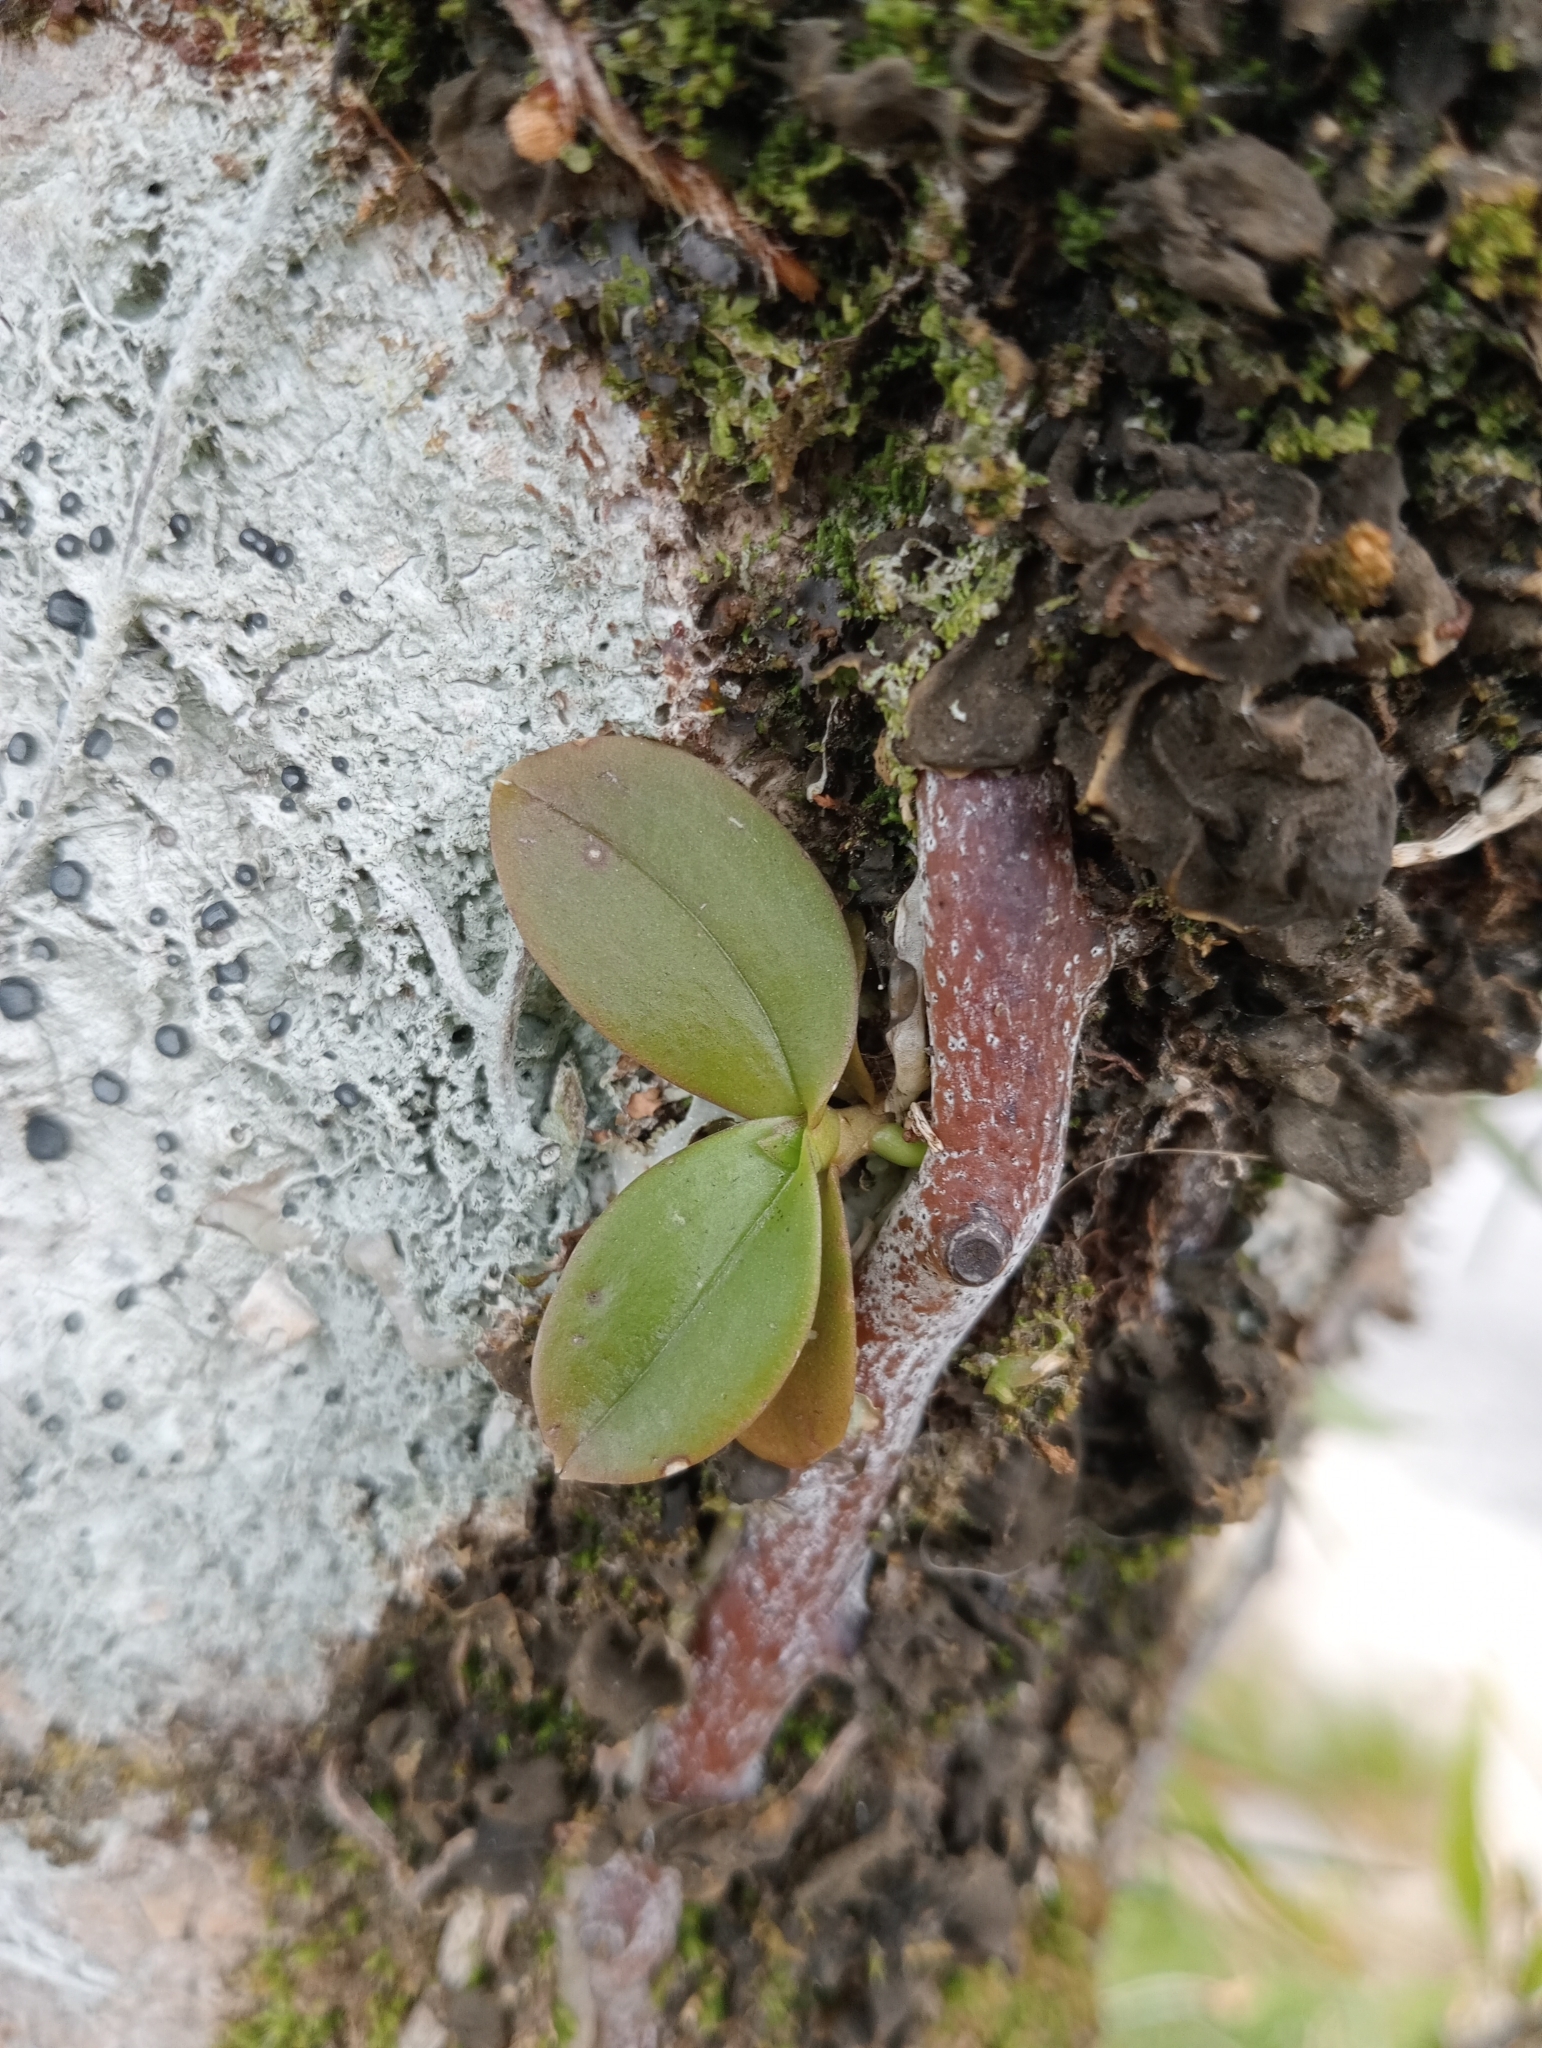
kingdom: Plantae
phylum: Tracheophyta
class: Liliopsida
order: Asparagales
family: Orchidaceae
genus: Drymoanthus
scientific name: Drymoanthus adversus
